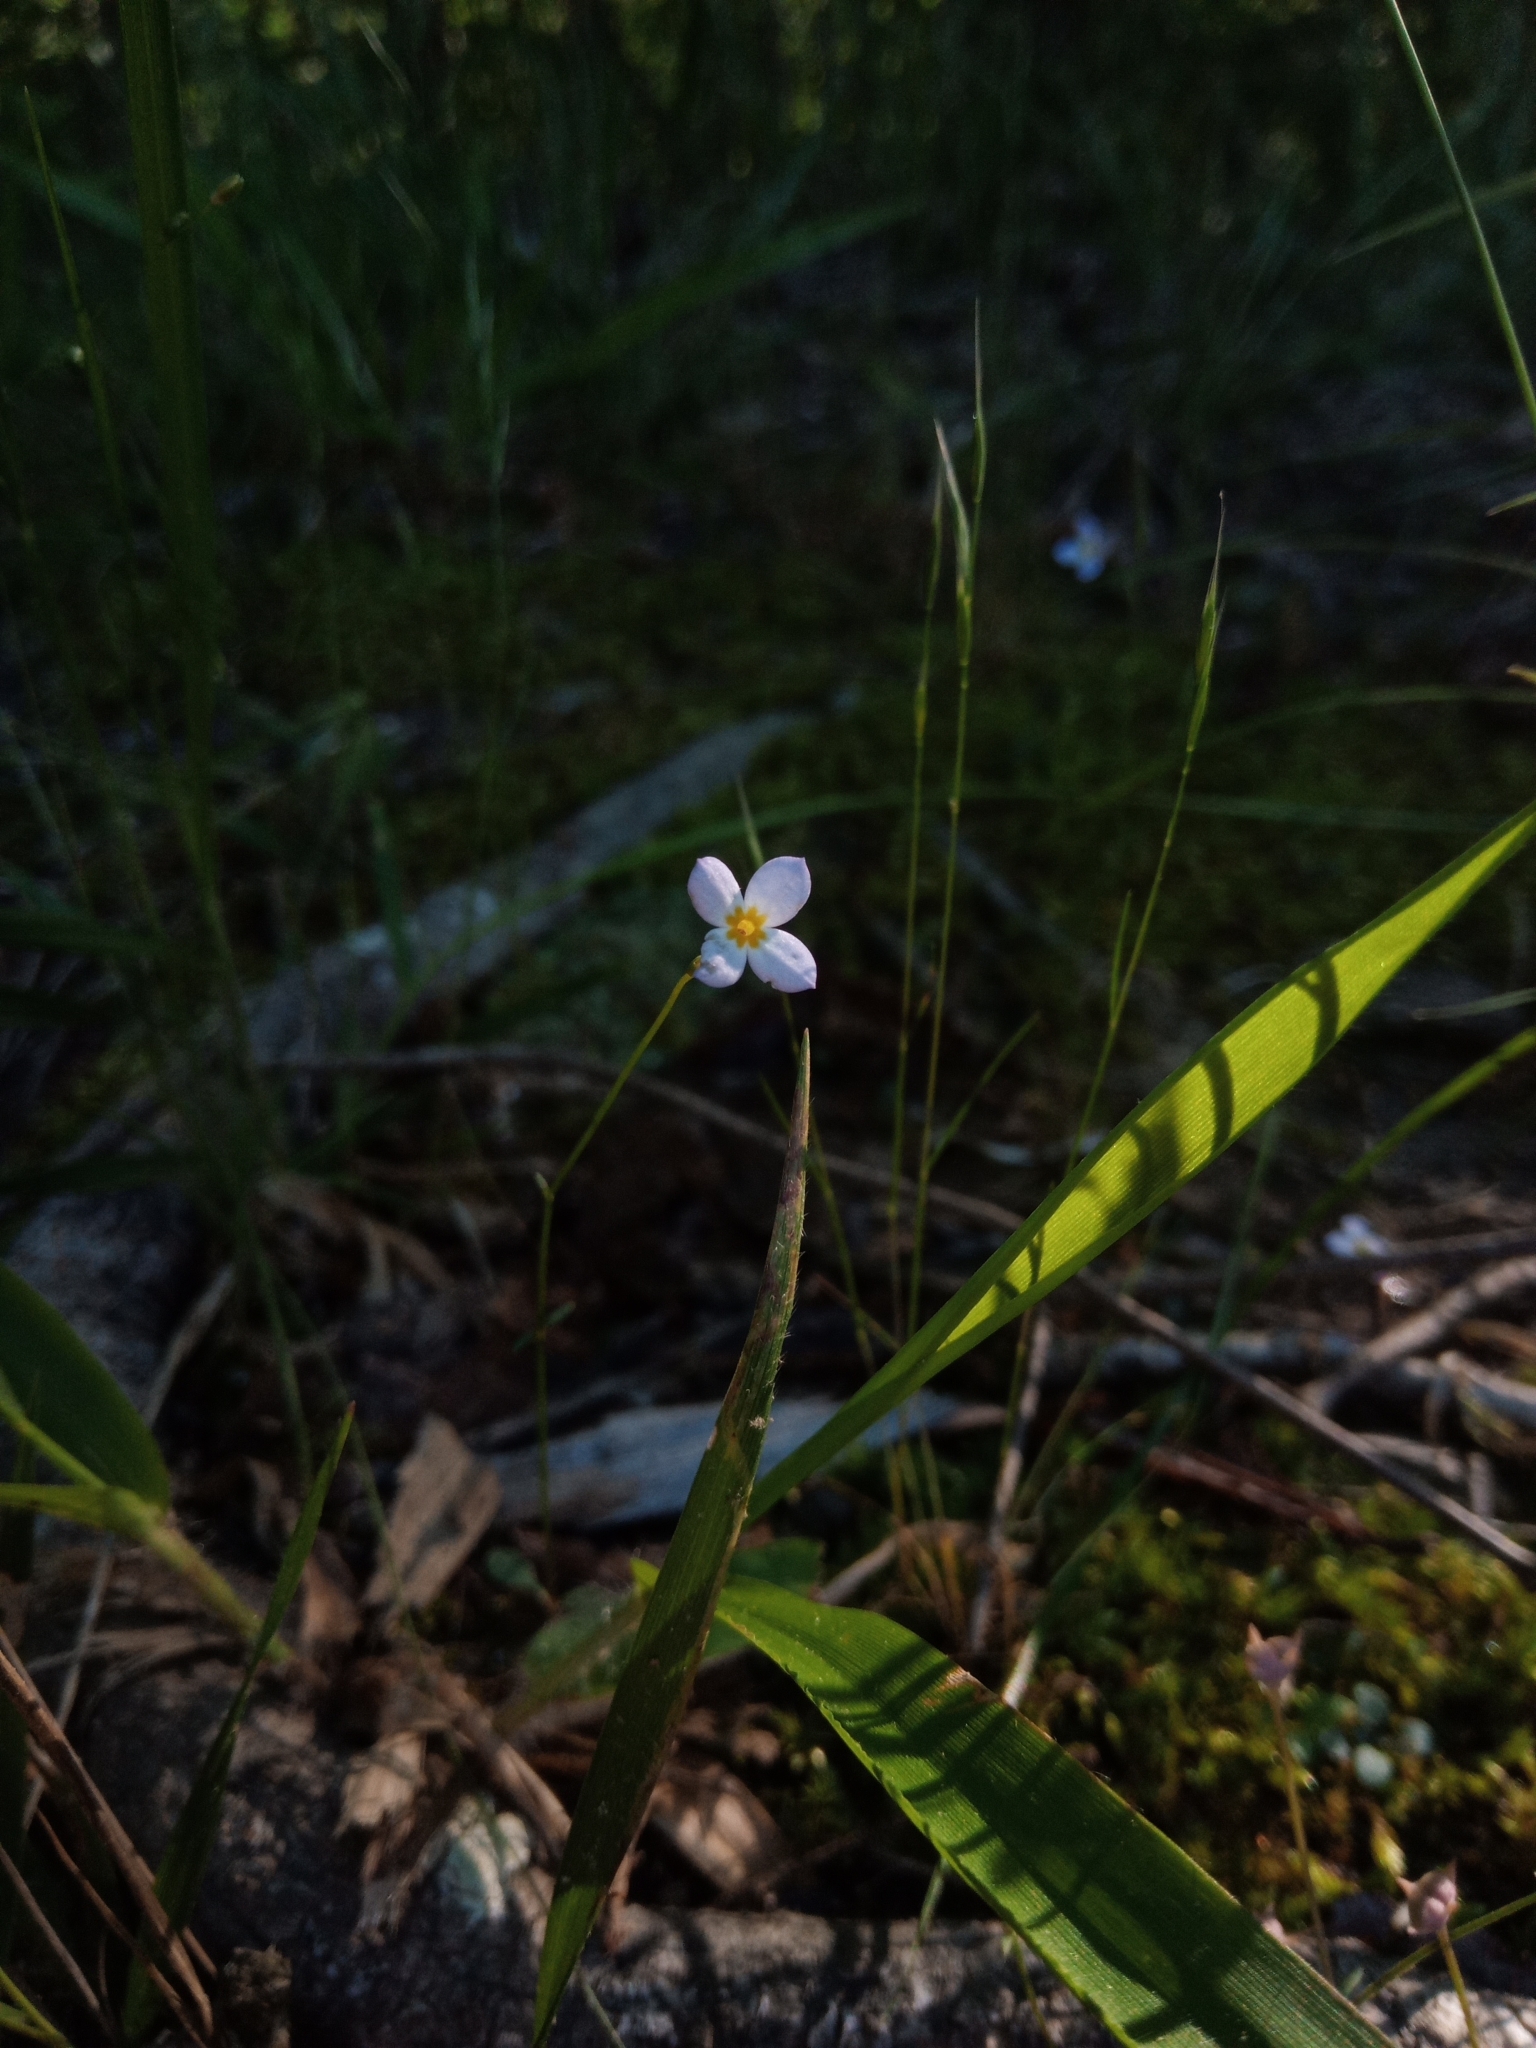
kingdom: Plantae
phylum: Tracheophyta
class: Magnoliopsida
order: Gentianales
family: Rubiaceae
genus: Houstonia
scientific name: Houstonia caerulea
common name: Bluets
